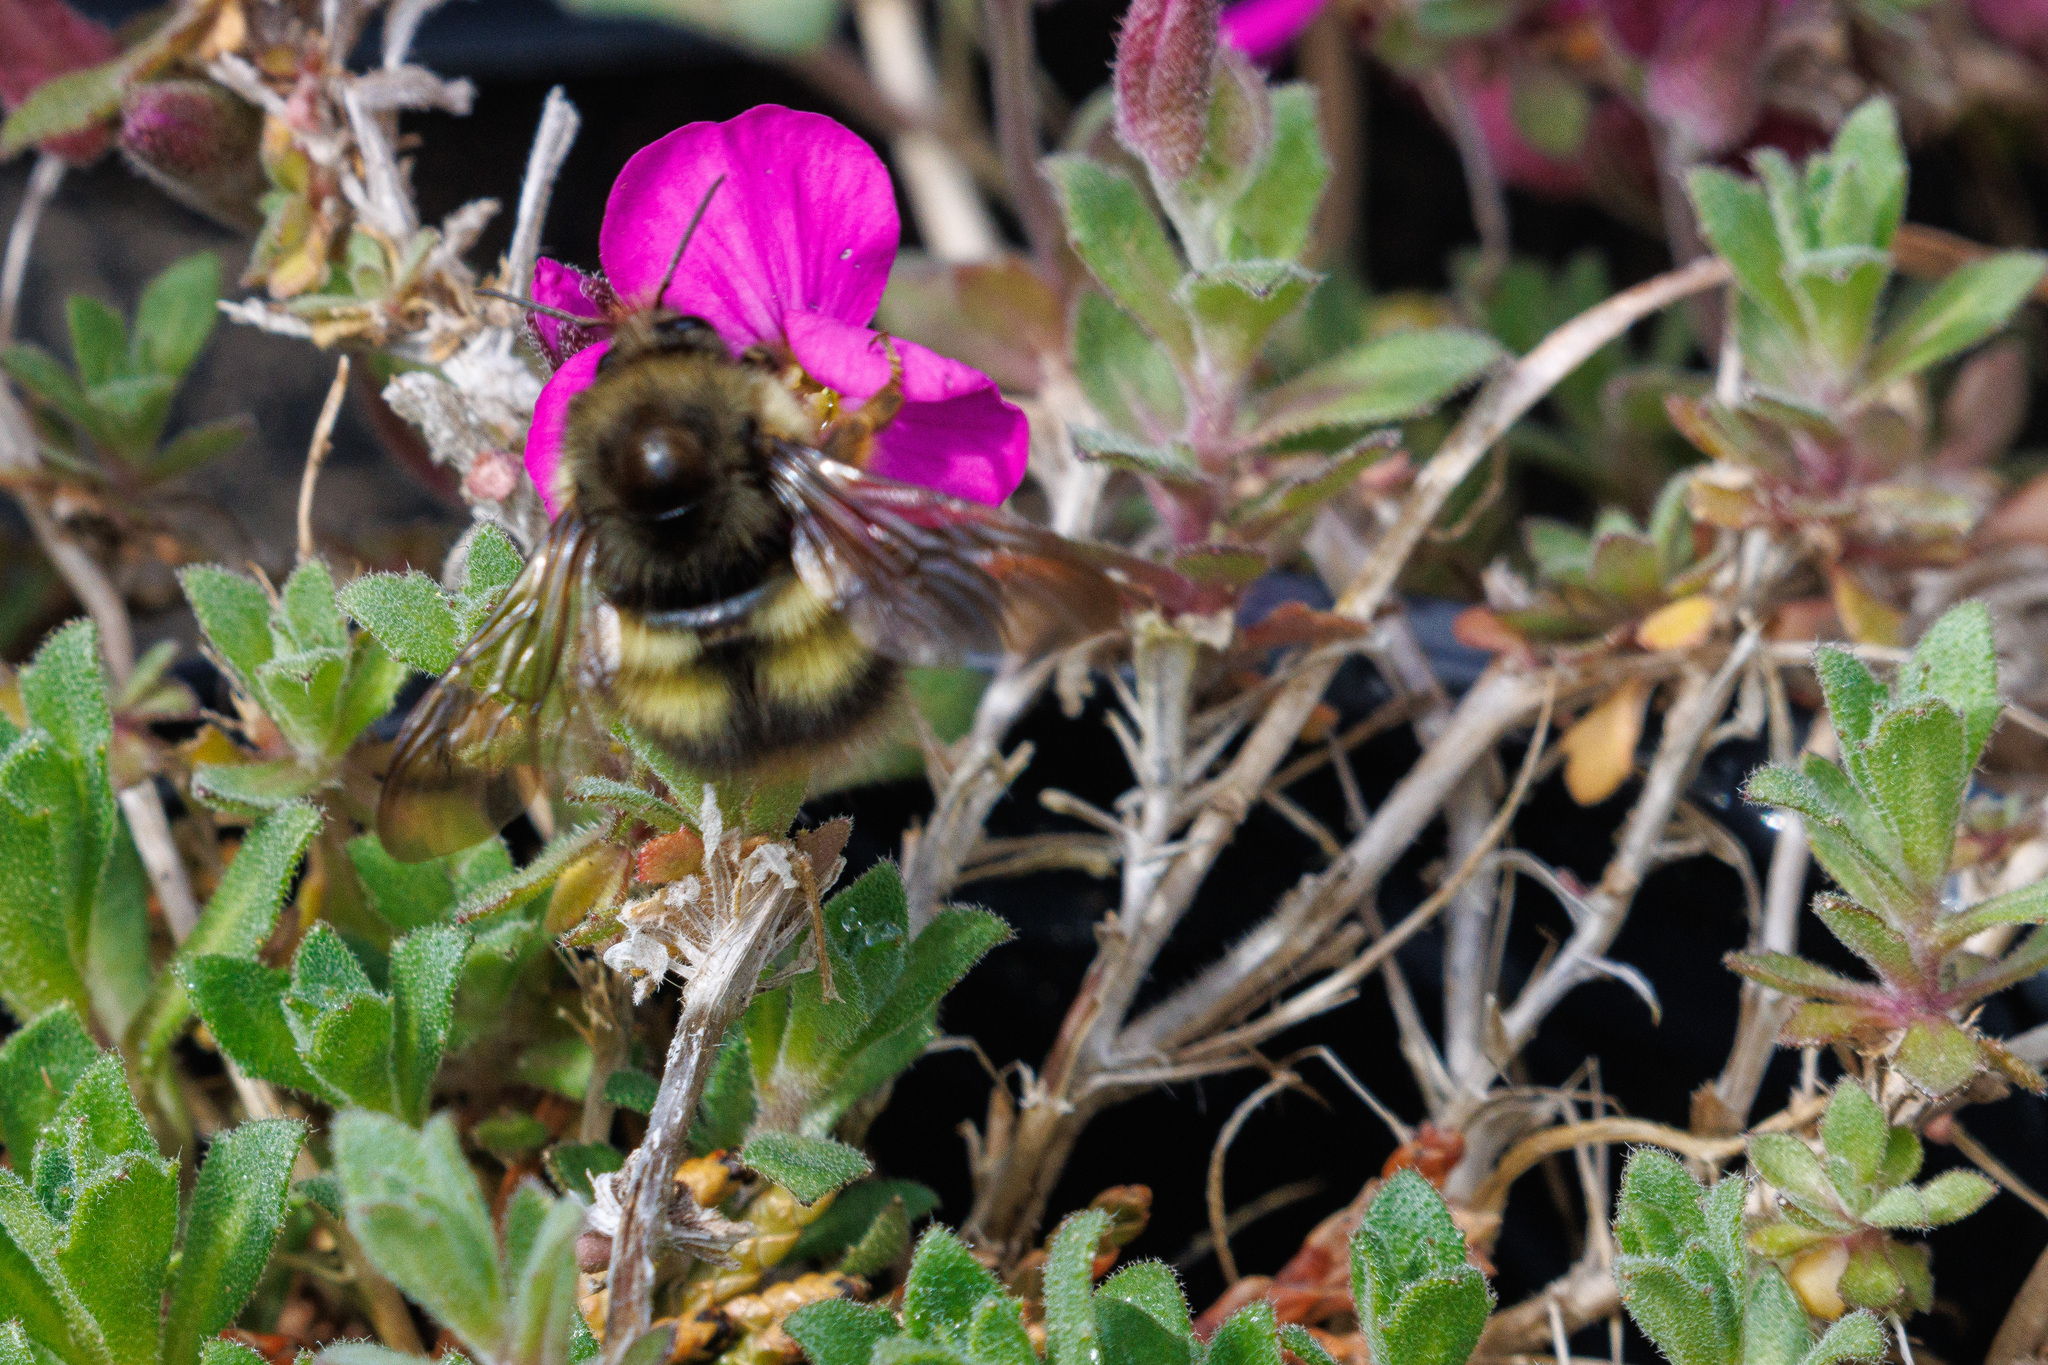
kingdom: Animalia
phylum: Arthropoda
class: Insecta
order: Hymenoptera
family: Apidae
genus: Bombus
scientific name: Bombus mixtus
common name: Fuzzy-horned bumble bee
